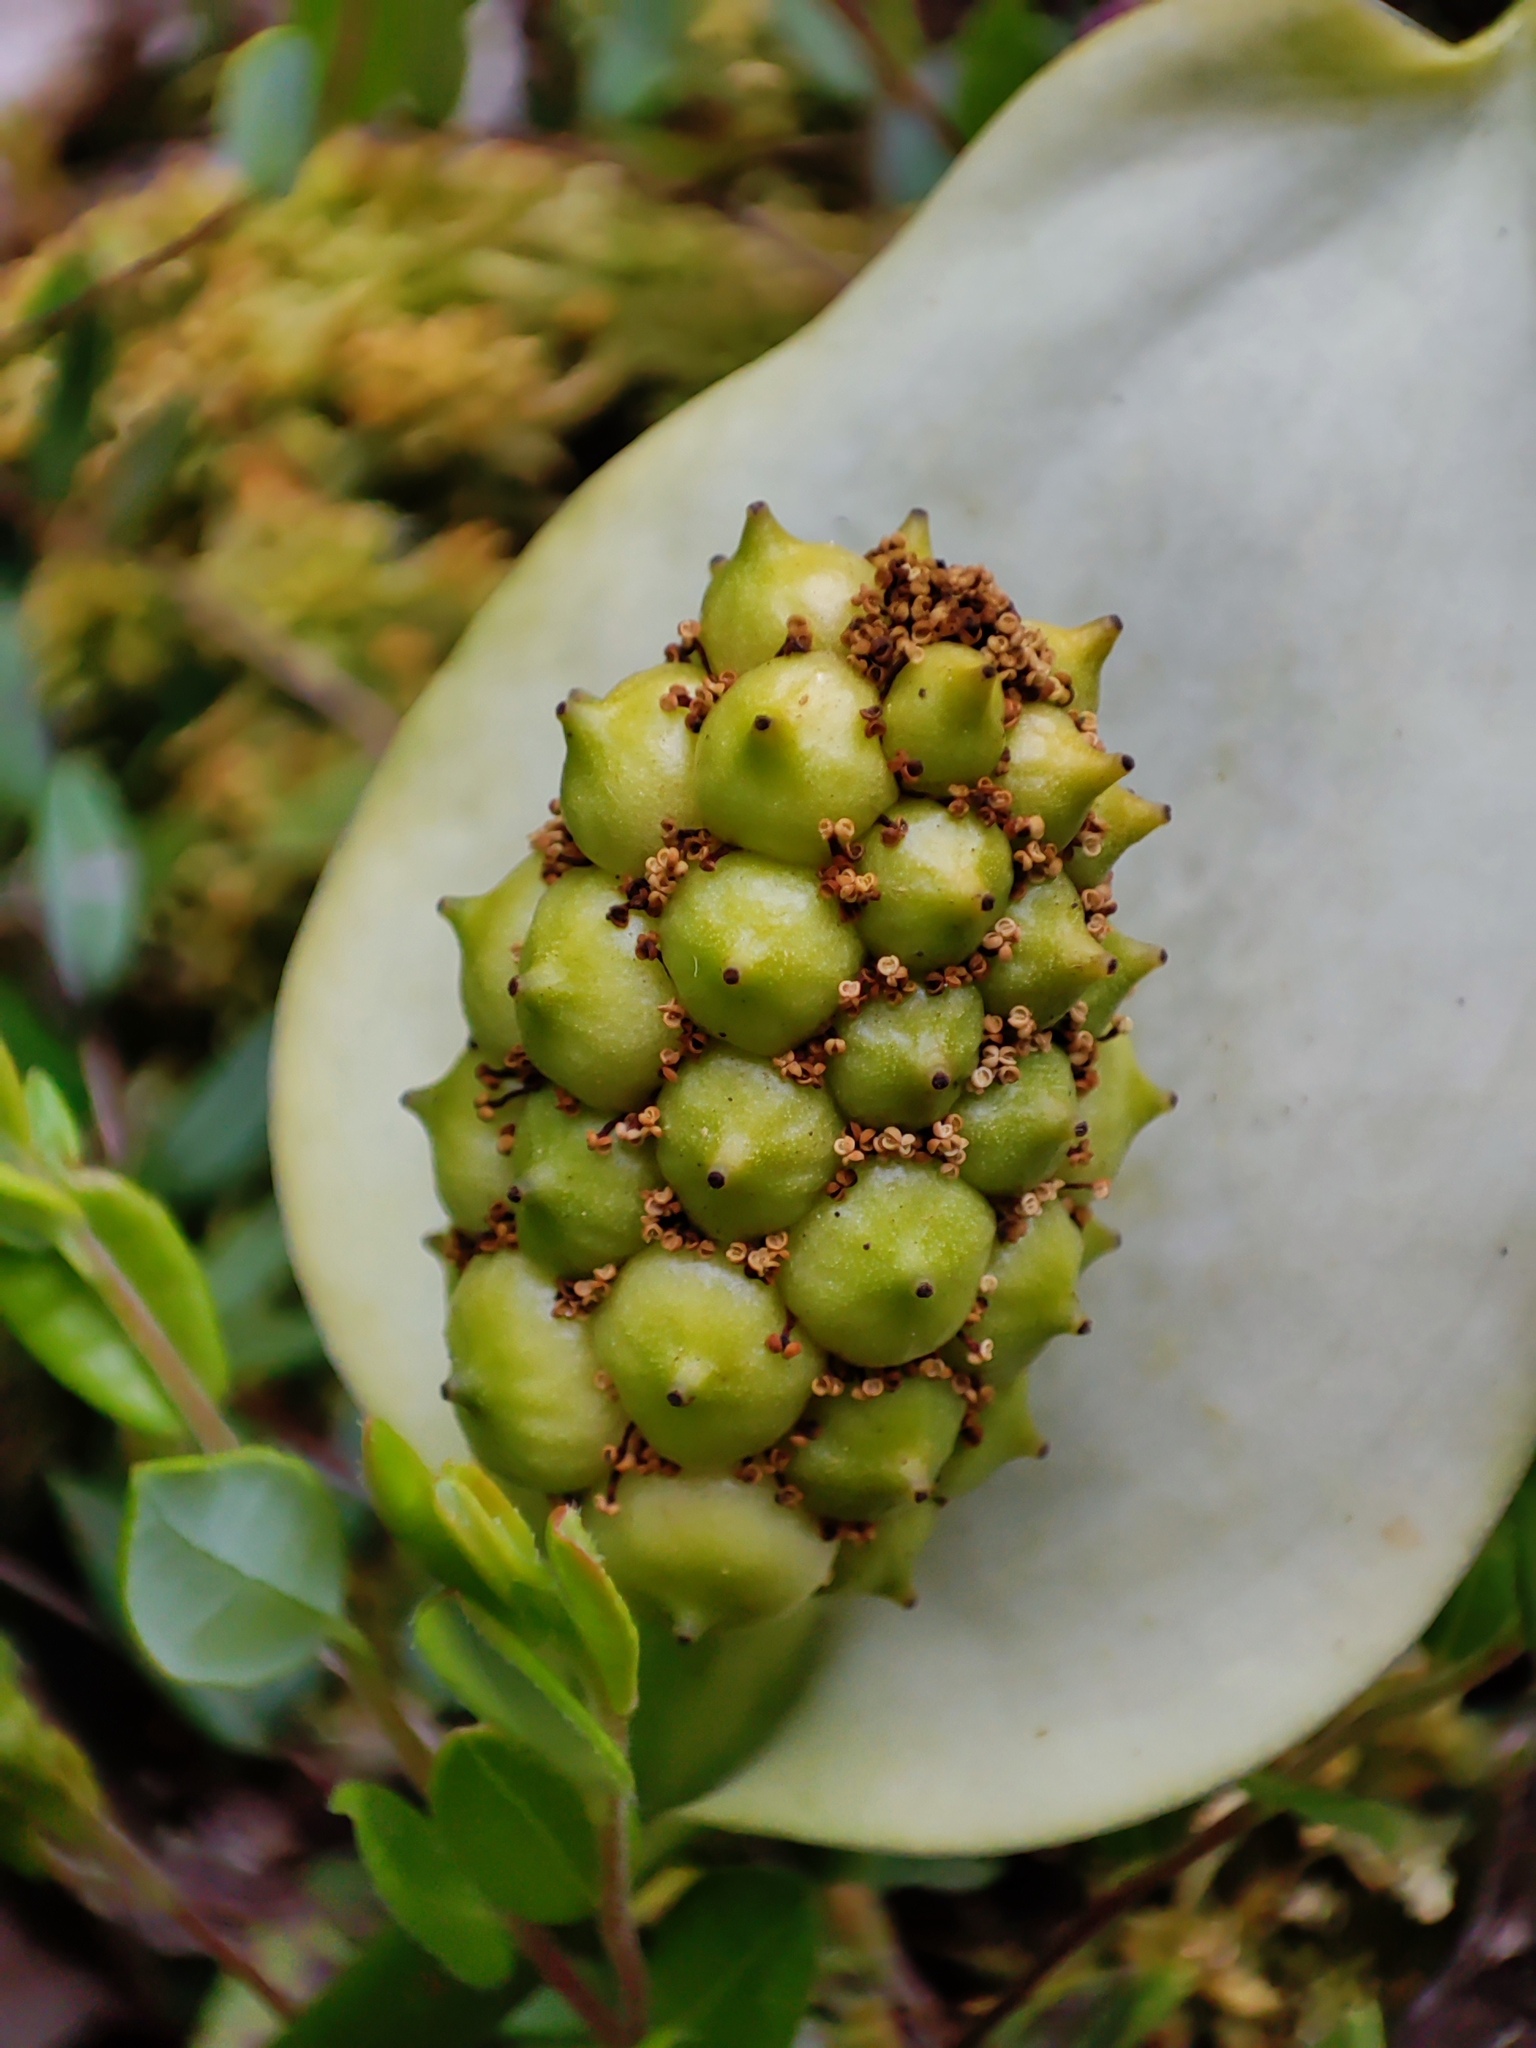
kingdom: Plantae
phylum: Tracheophyta
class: Liliopsida
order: Alismatales
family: Araceae
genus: Calla
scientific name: Calla palustris
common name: Bog arum
